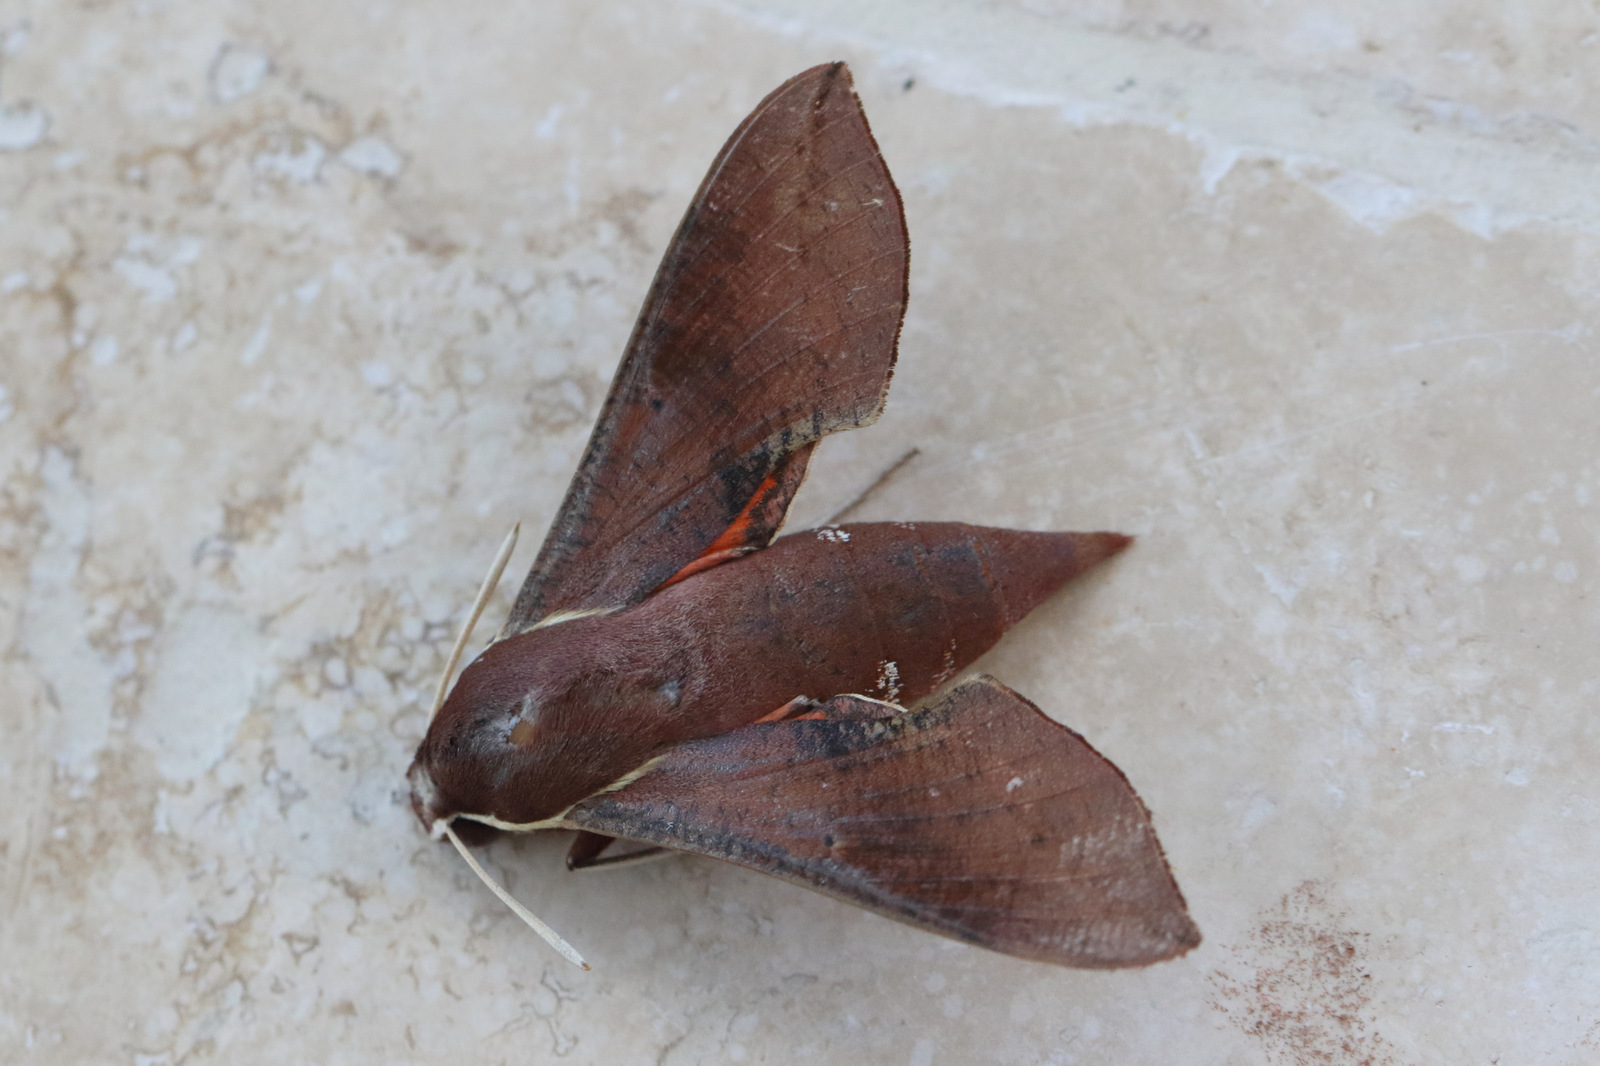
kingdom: Animalia
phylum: Arthropoda
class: Insecta
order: Lepidoptera
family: Sphingidae
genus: Hippotion
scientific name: Hippotion scrofa
